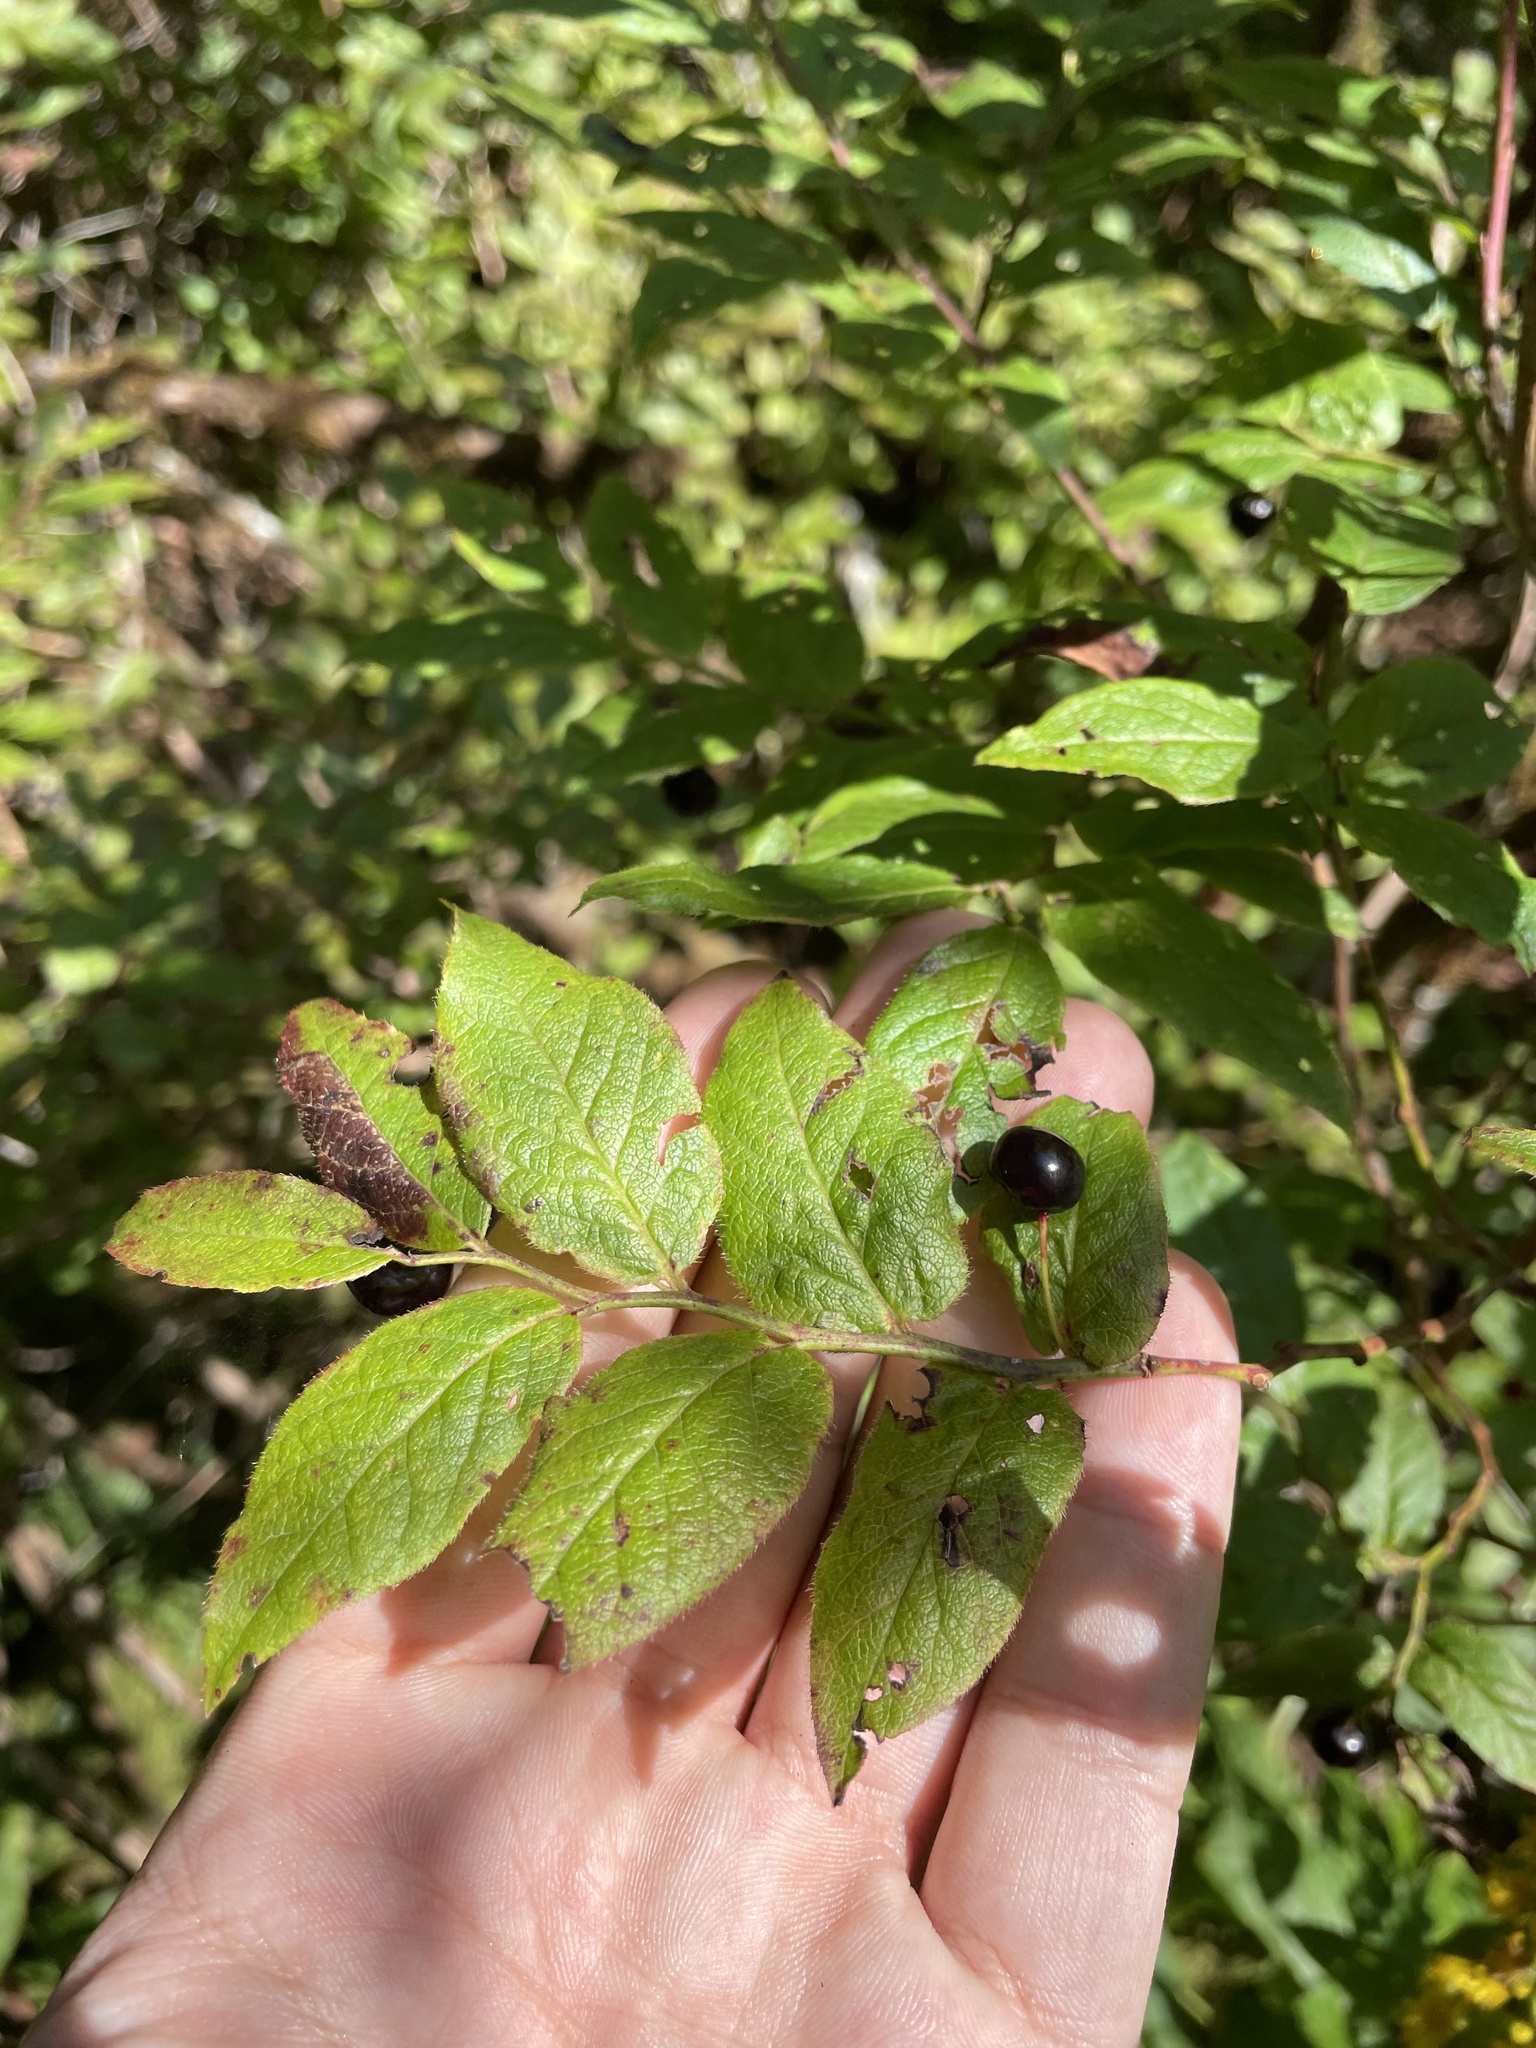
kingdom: Plantae
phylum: Tracheophyta
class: Magnoliopsida
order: Ericales
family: Ericaceae
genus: Vaccinium
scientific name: Vaccinium erythrocarpum
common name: Bearberry
